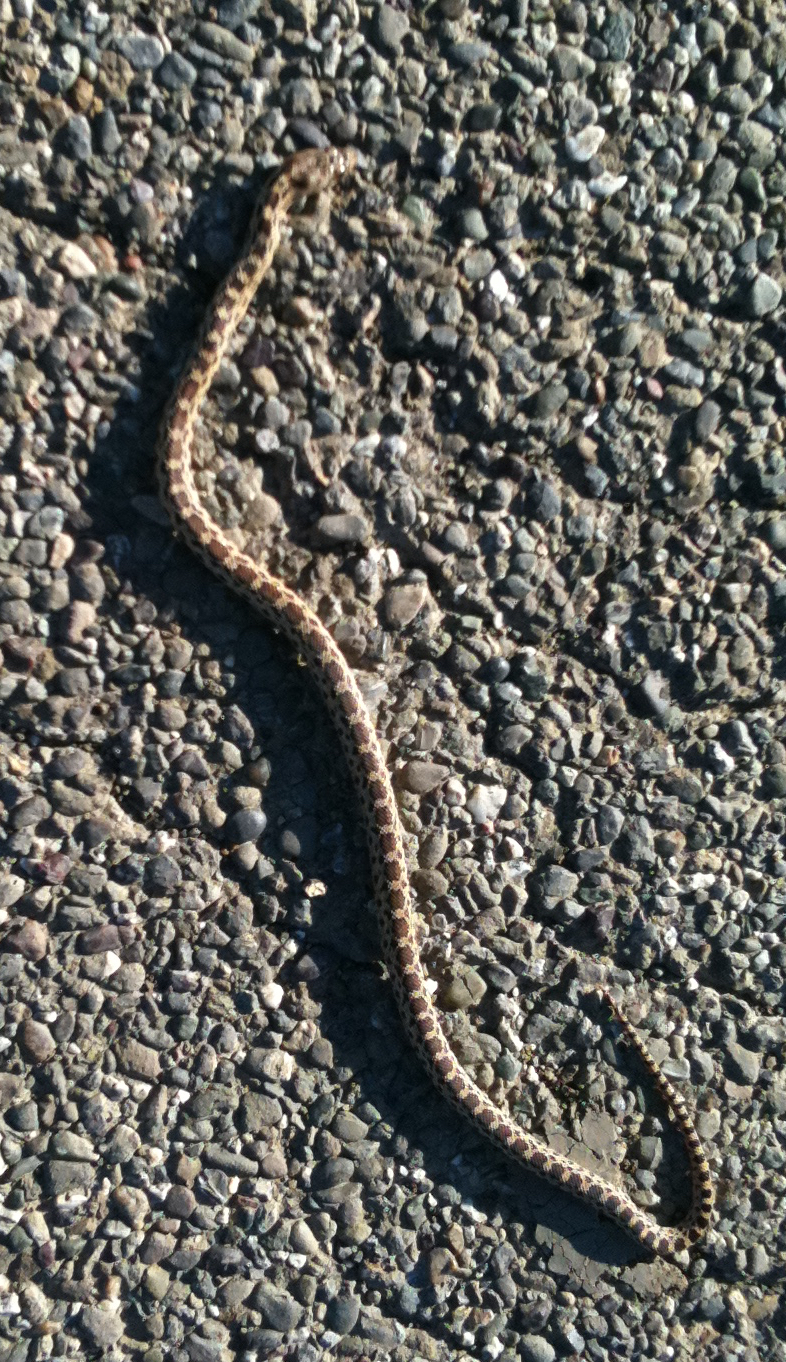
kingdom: Animalia
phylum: Chordata
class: Squamata
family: Colubridae
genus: Pituophis
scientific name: Pituophis catenifer
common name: Gopher snake
